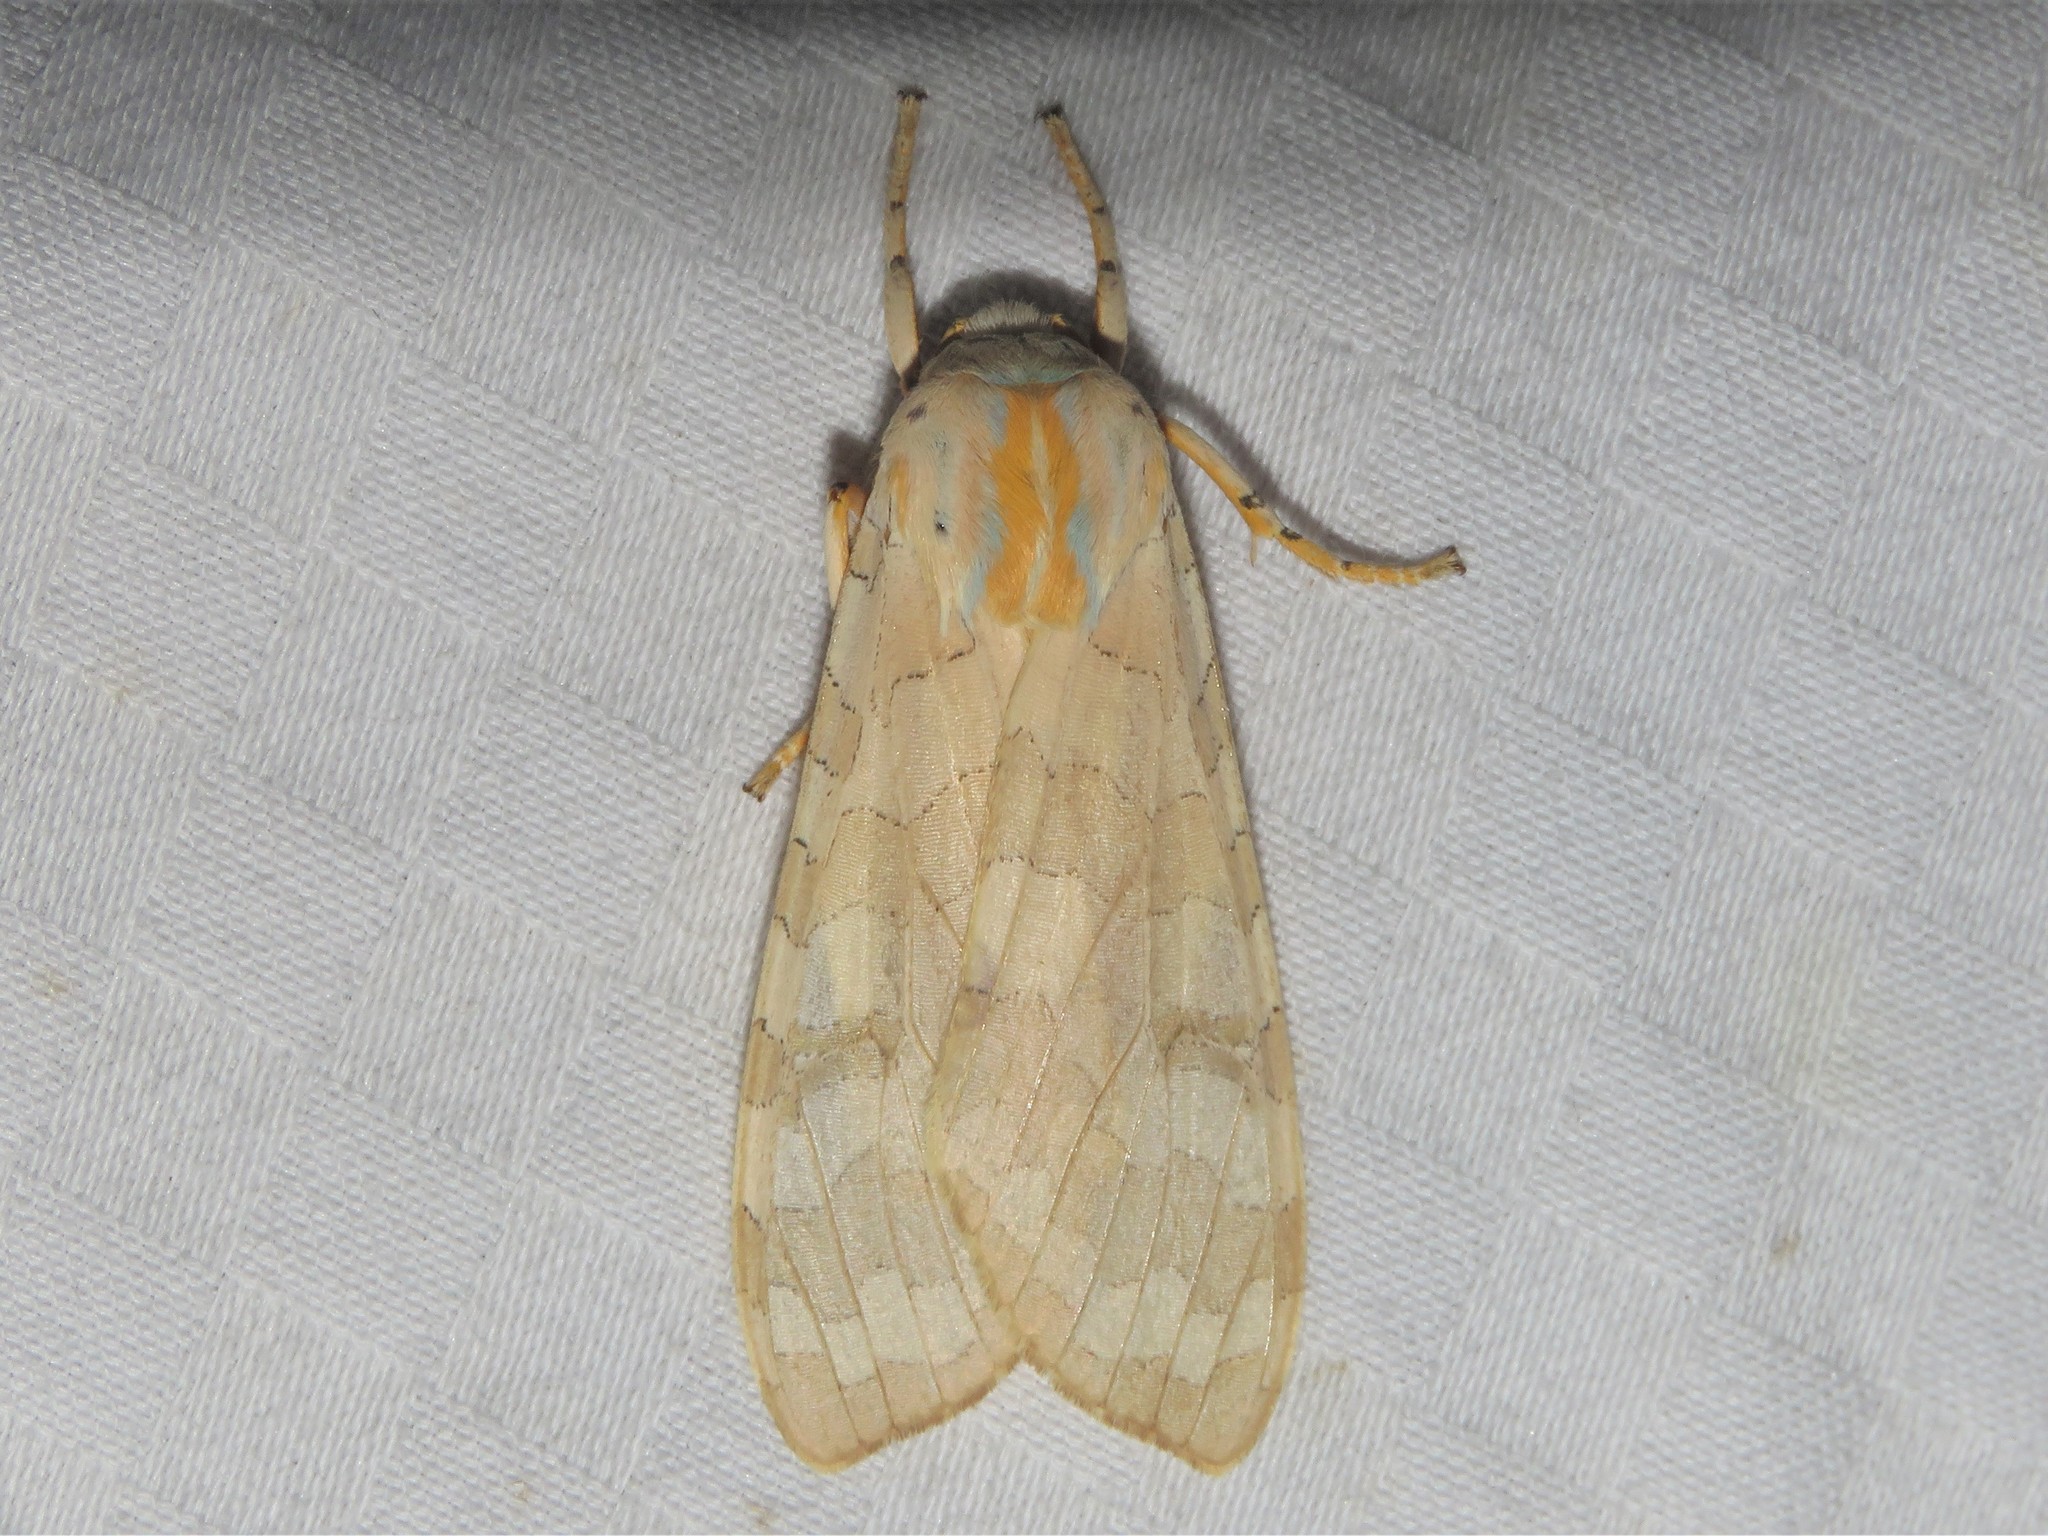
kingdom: Animalia
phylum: Arthropoda
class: Insecta
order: Lepidoptera
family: Erebidae
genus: Halysidota
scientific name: Halysidota tessellaris
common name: Banded tussock moth
